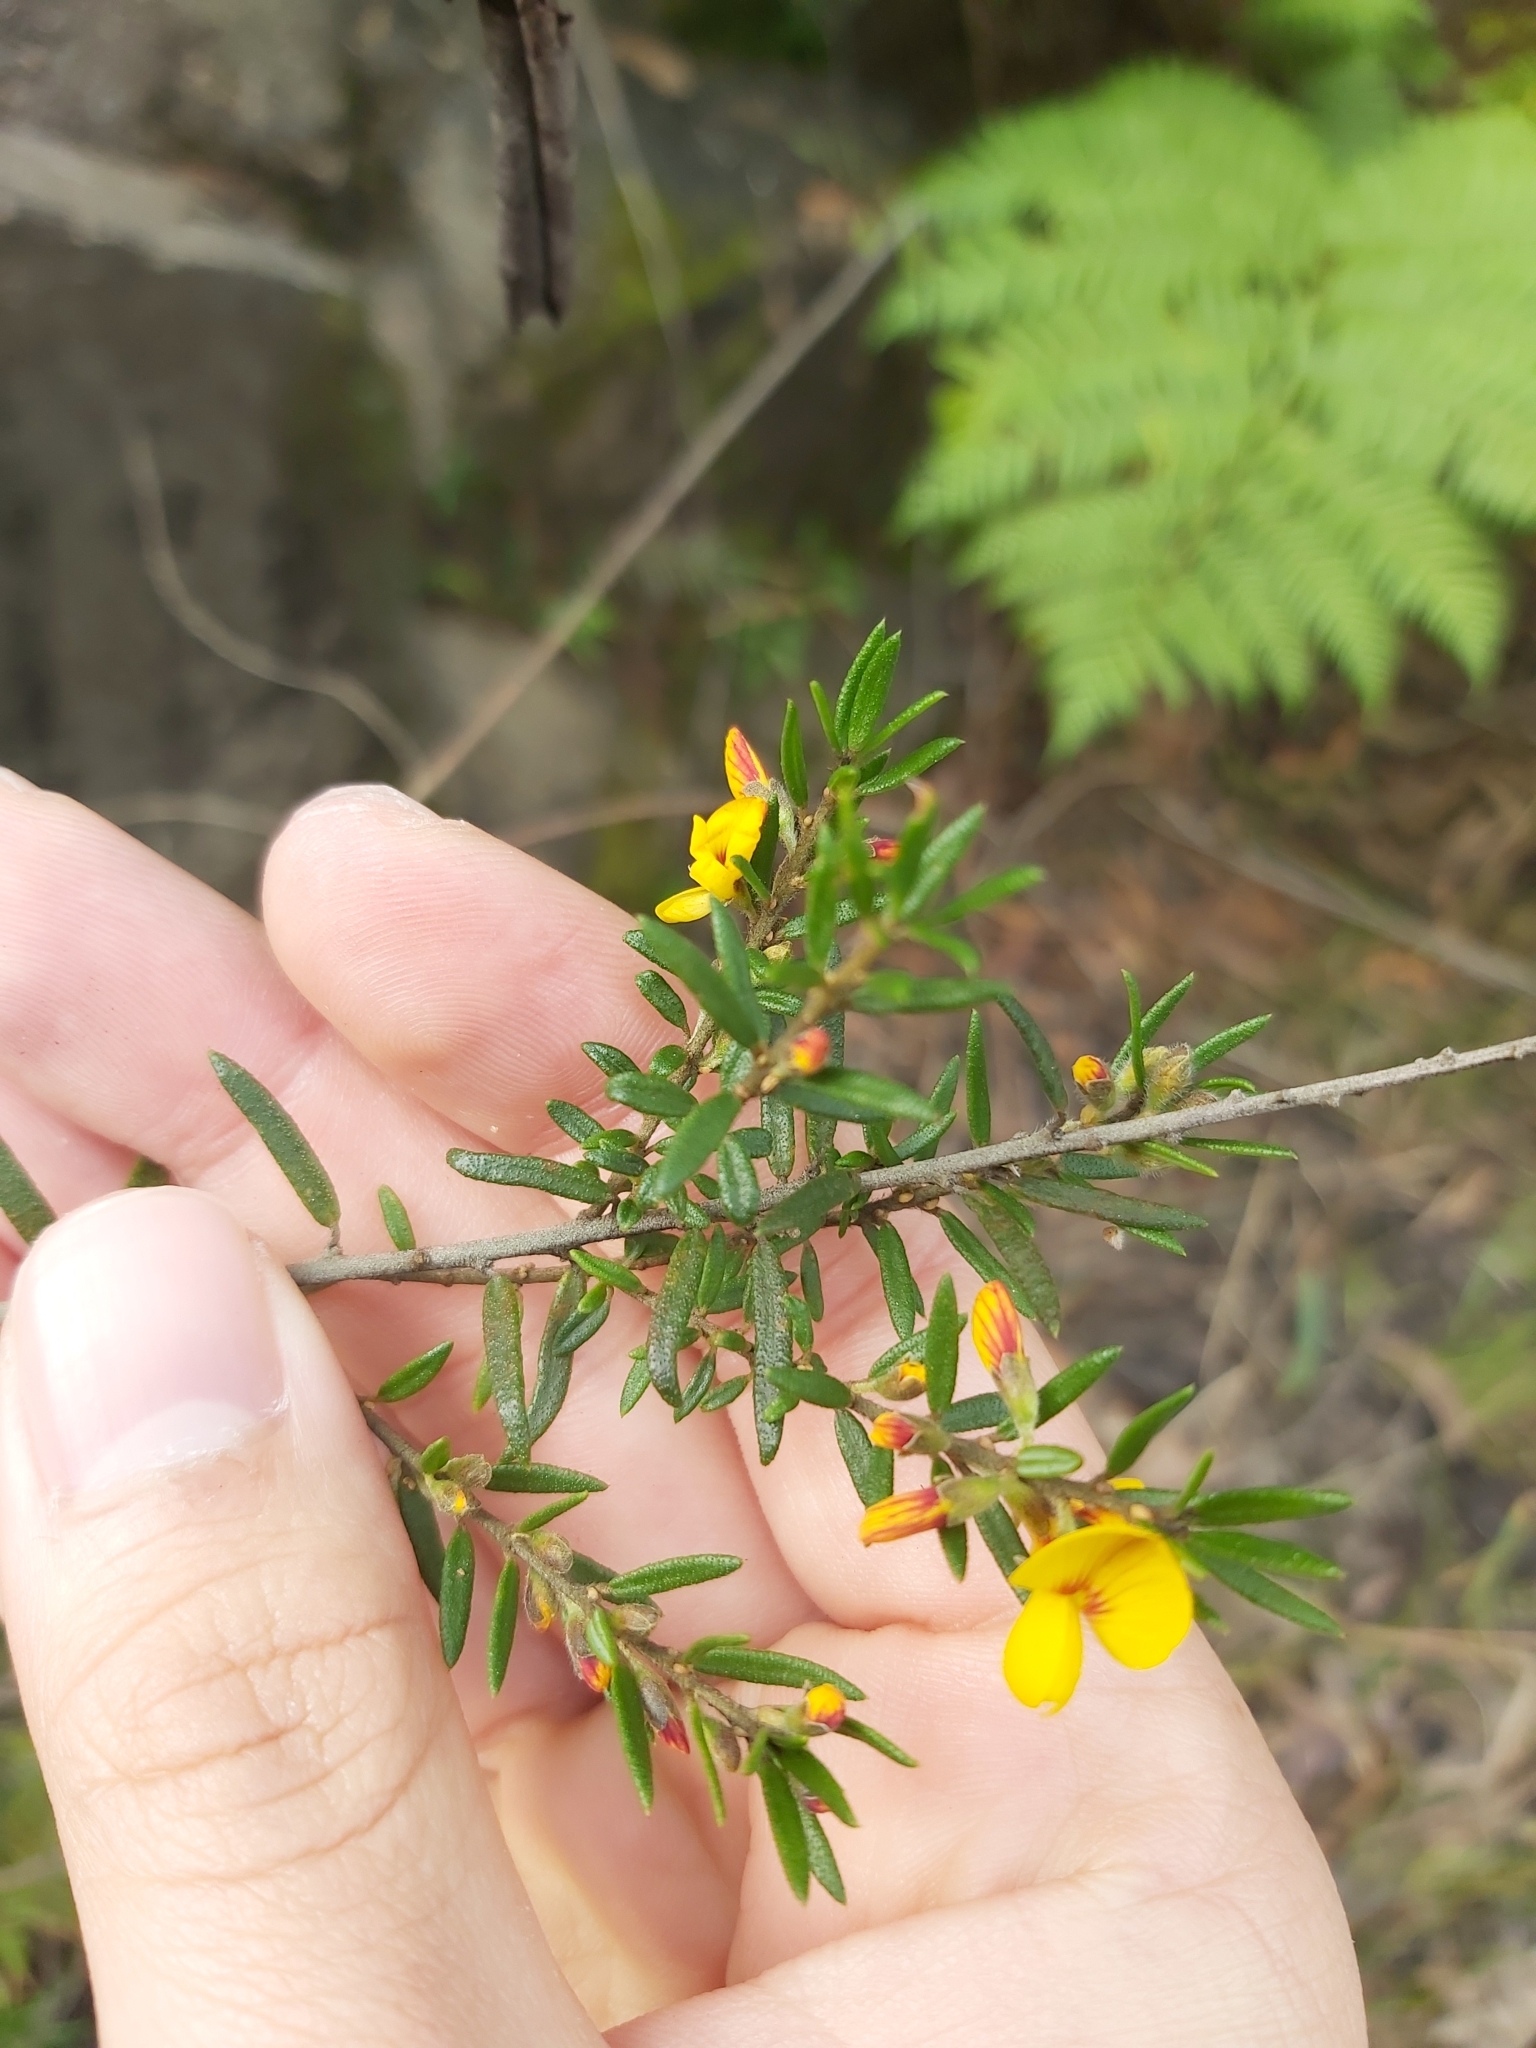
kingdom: Plantae
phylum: Tracheophyta
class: Magnoliopsida
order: Fabales
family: Fabaceae
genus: Phyllota
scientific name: Phyllota phylicoides
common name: Heath phyllota
